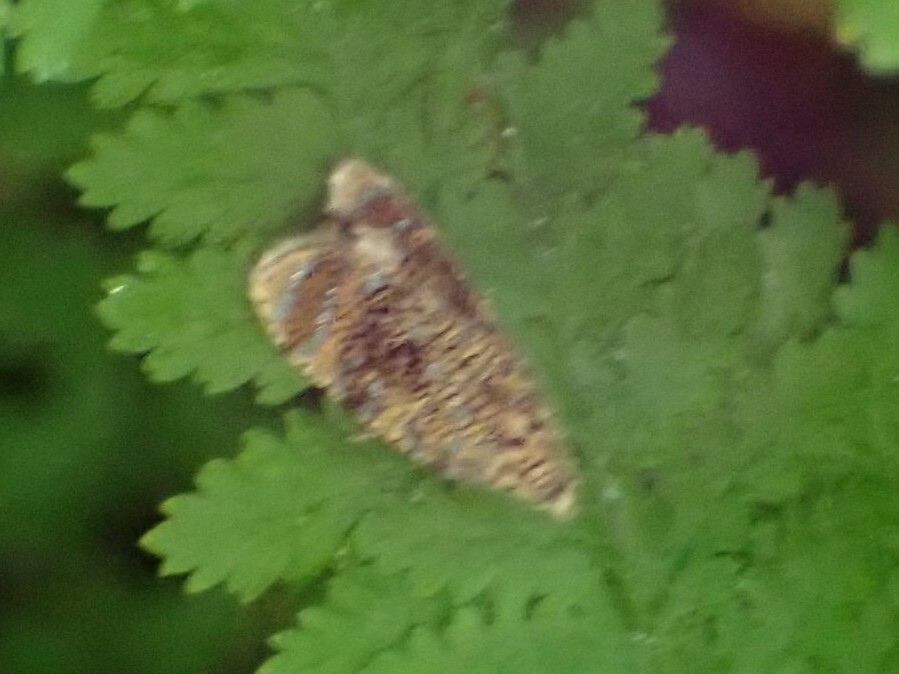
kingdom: Animalia
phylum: Arthropoda
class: Insecta
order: Lepidoptera
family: Tortricidae
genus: Olethreutes
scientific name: Olethreutes astrologana
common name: Astronomer moth
